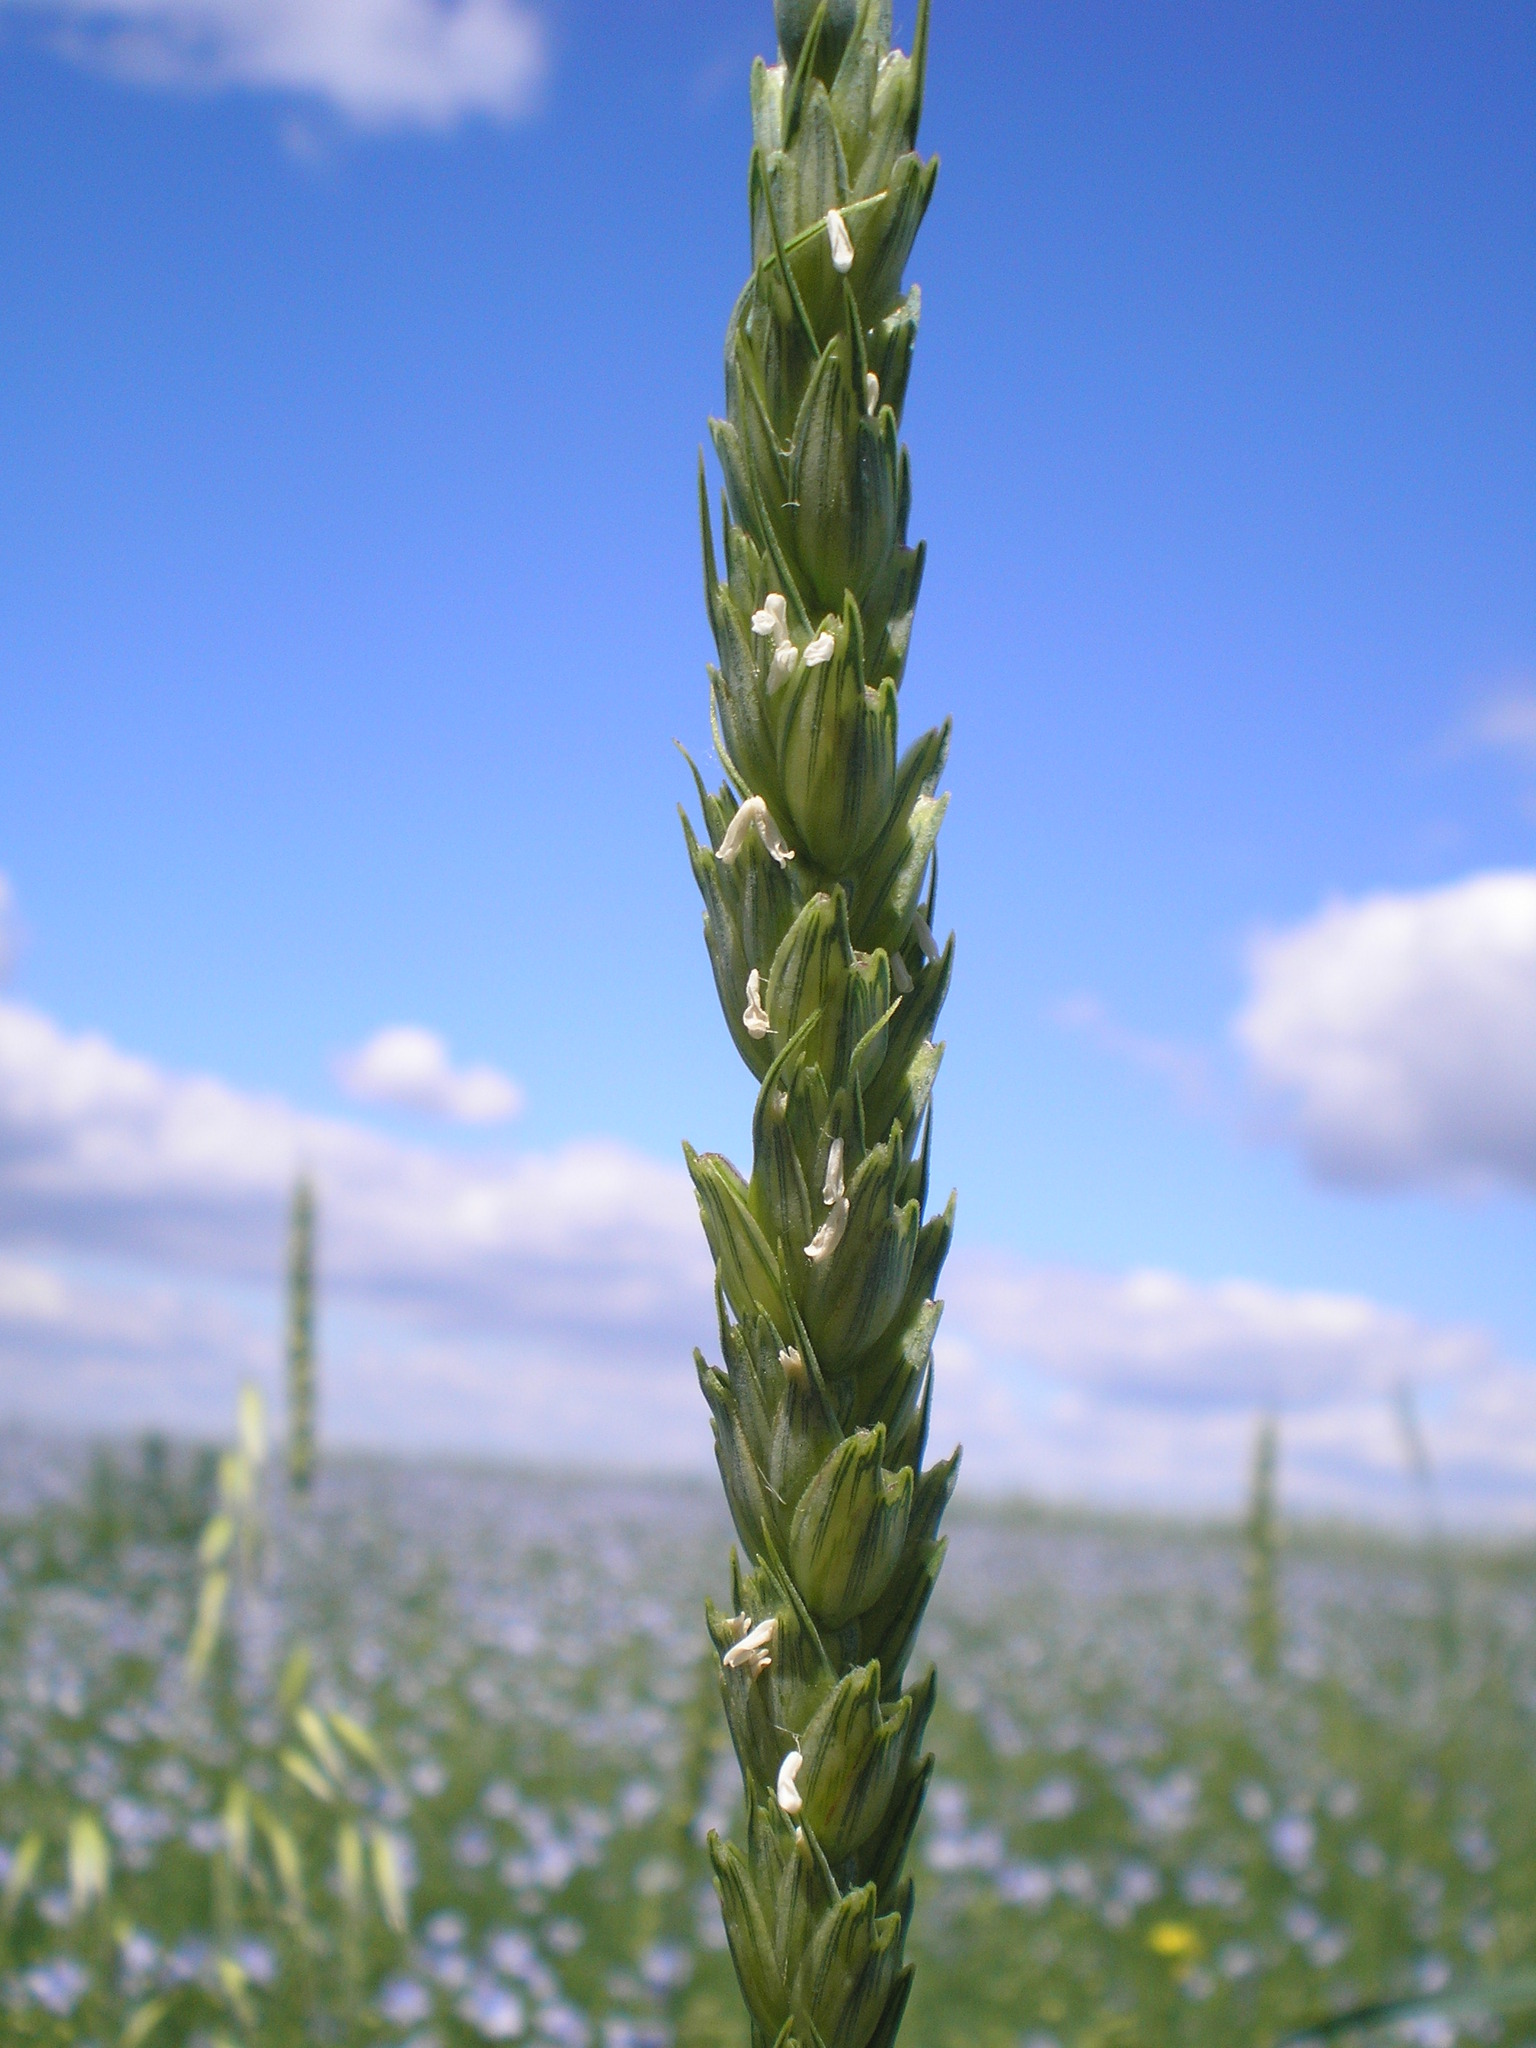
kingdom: Plantae
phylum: Tracheophyta
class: Liliopsida
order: Poales
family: Poaceae
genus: Triticum
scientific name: Triticum aestivum
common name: Common wheat
